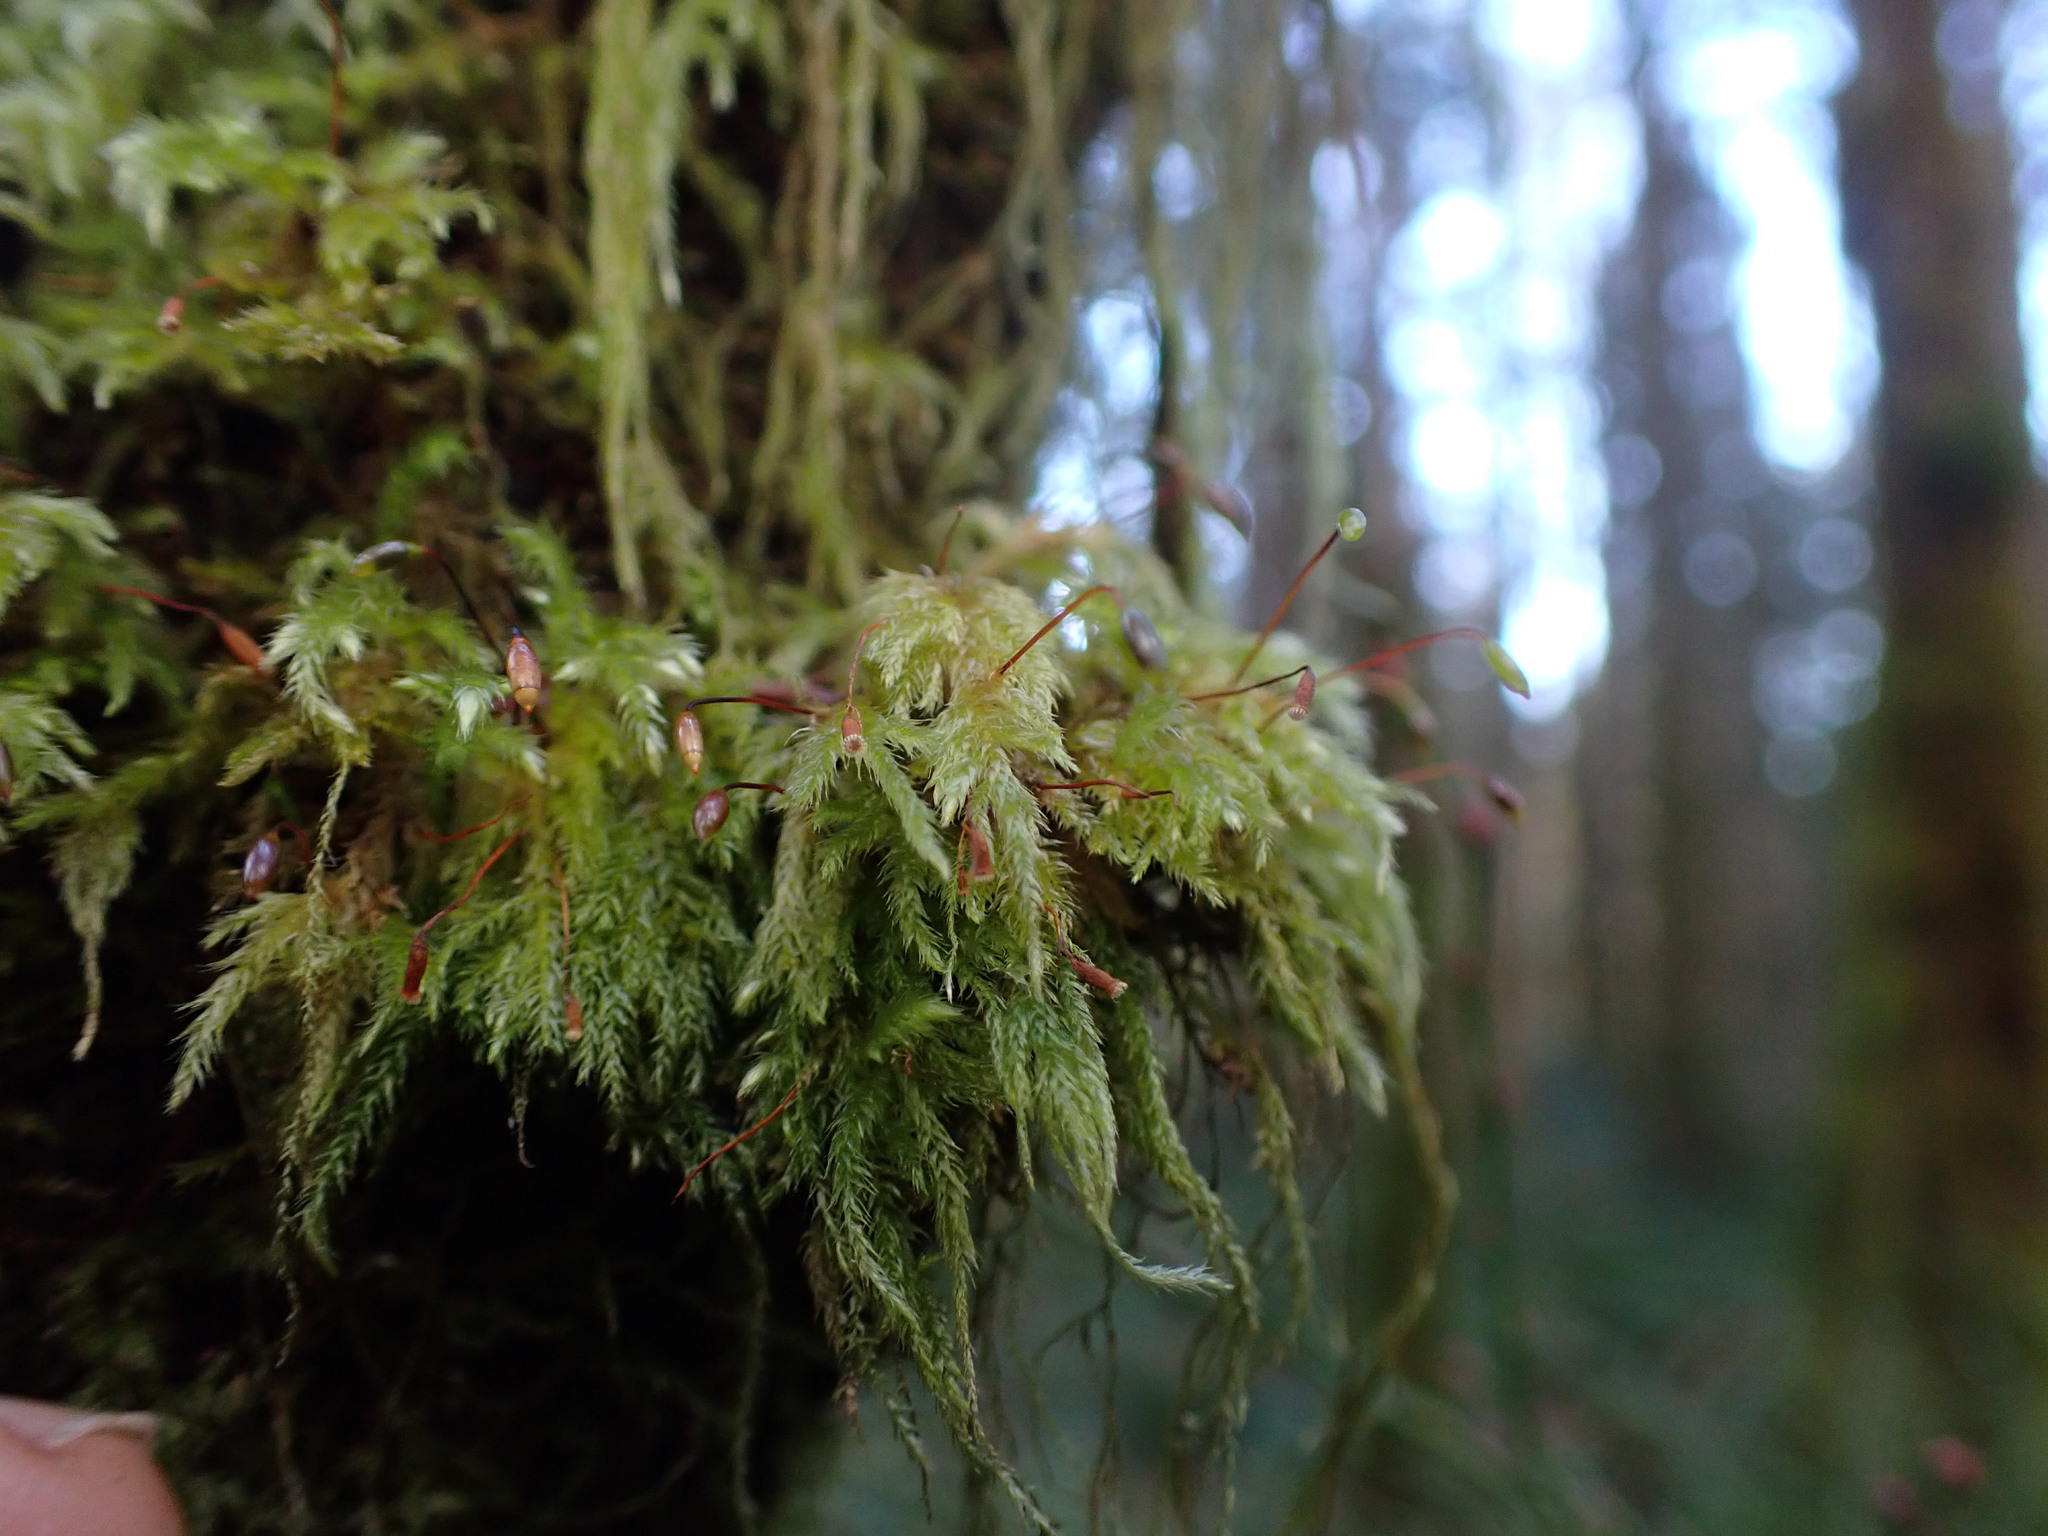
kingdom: Plantae
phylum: Bryophyta
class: Bryopsida
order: Hypnales
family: Lembophyllaceae
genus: Pseudisothecium
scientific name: Pseudisothecium stoloniferum
